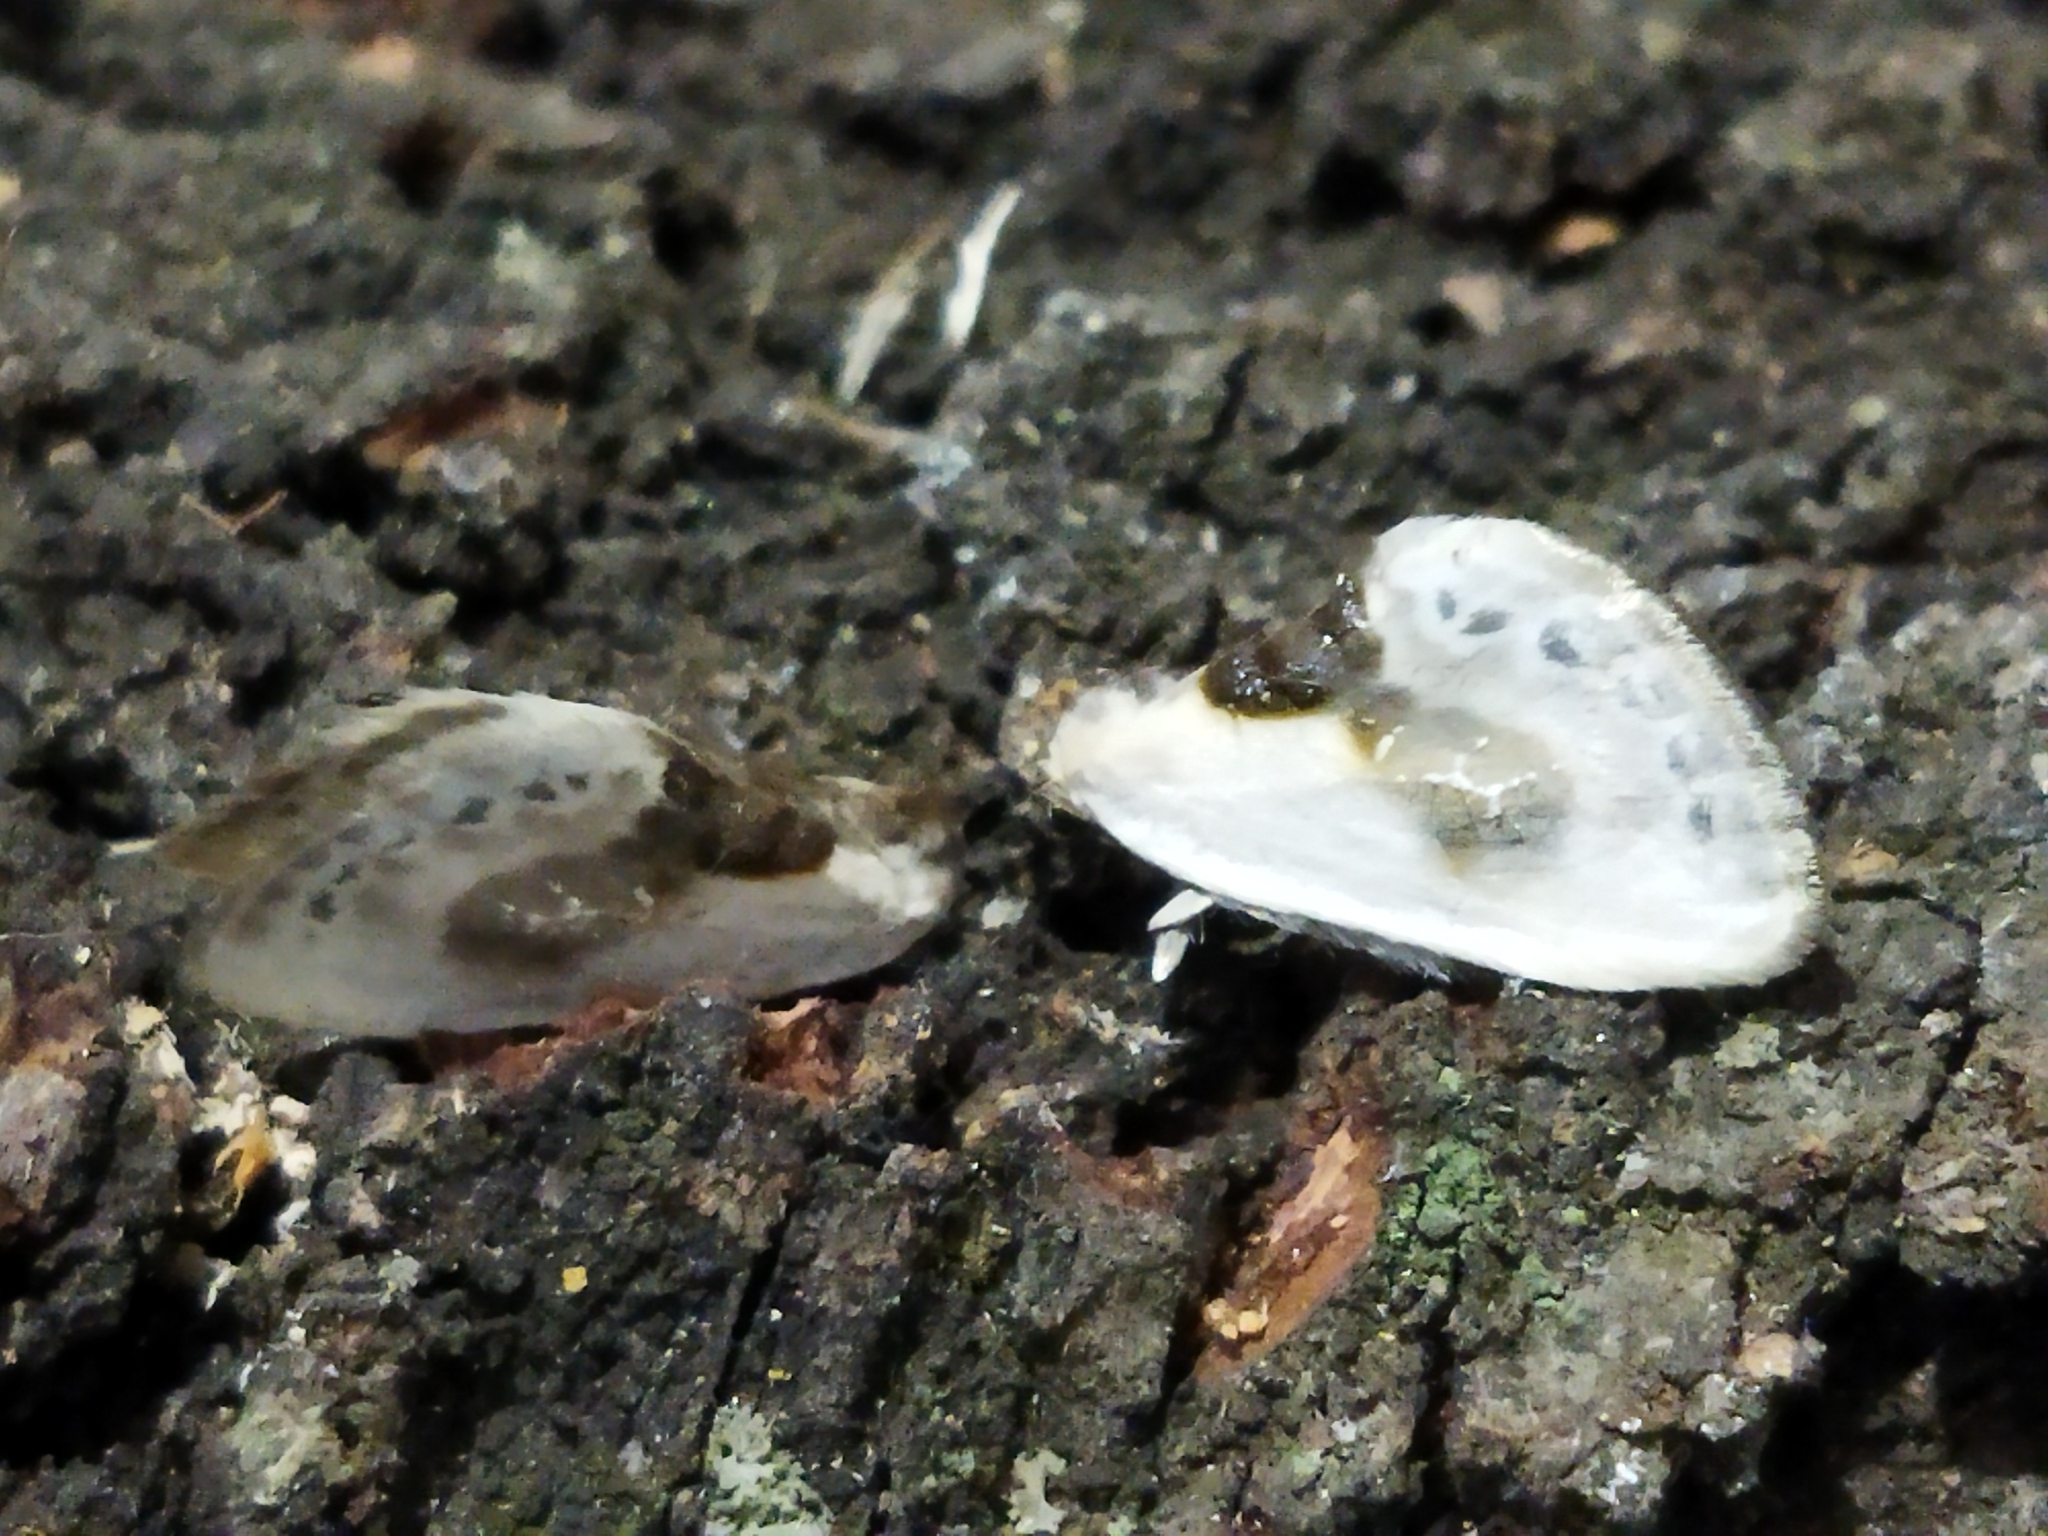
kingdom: Animalia
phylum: Arthropoda
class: Insecta
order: Lepidoptera
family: Drepanidae
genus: Cilix
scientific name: Cilix glaucata
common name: Chinese character
